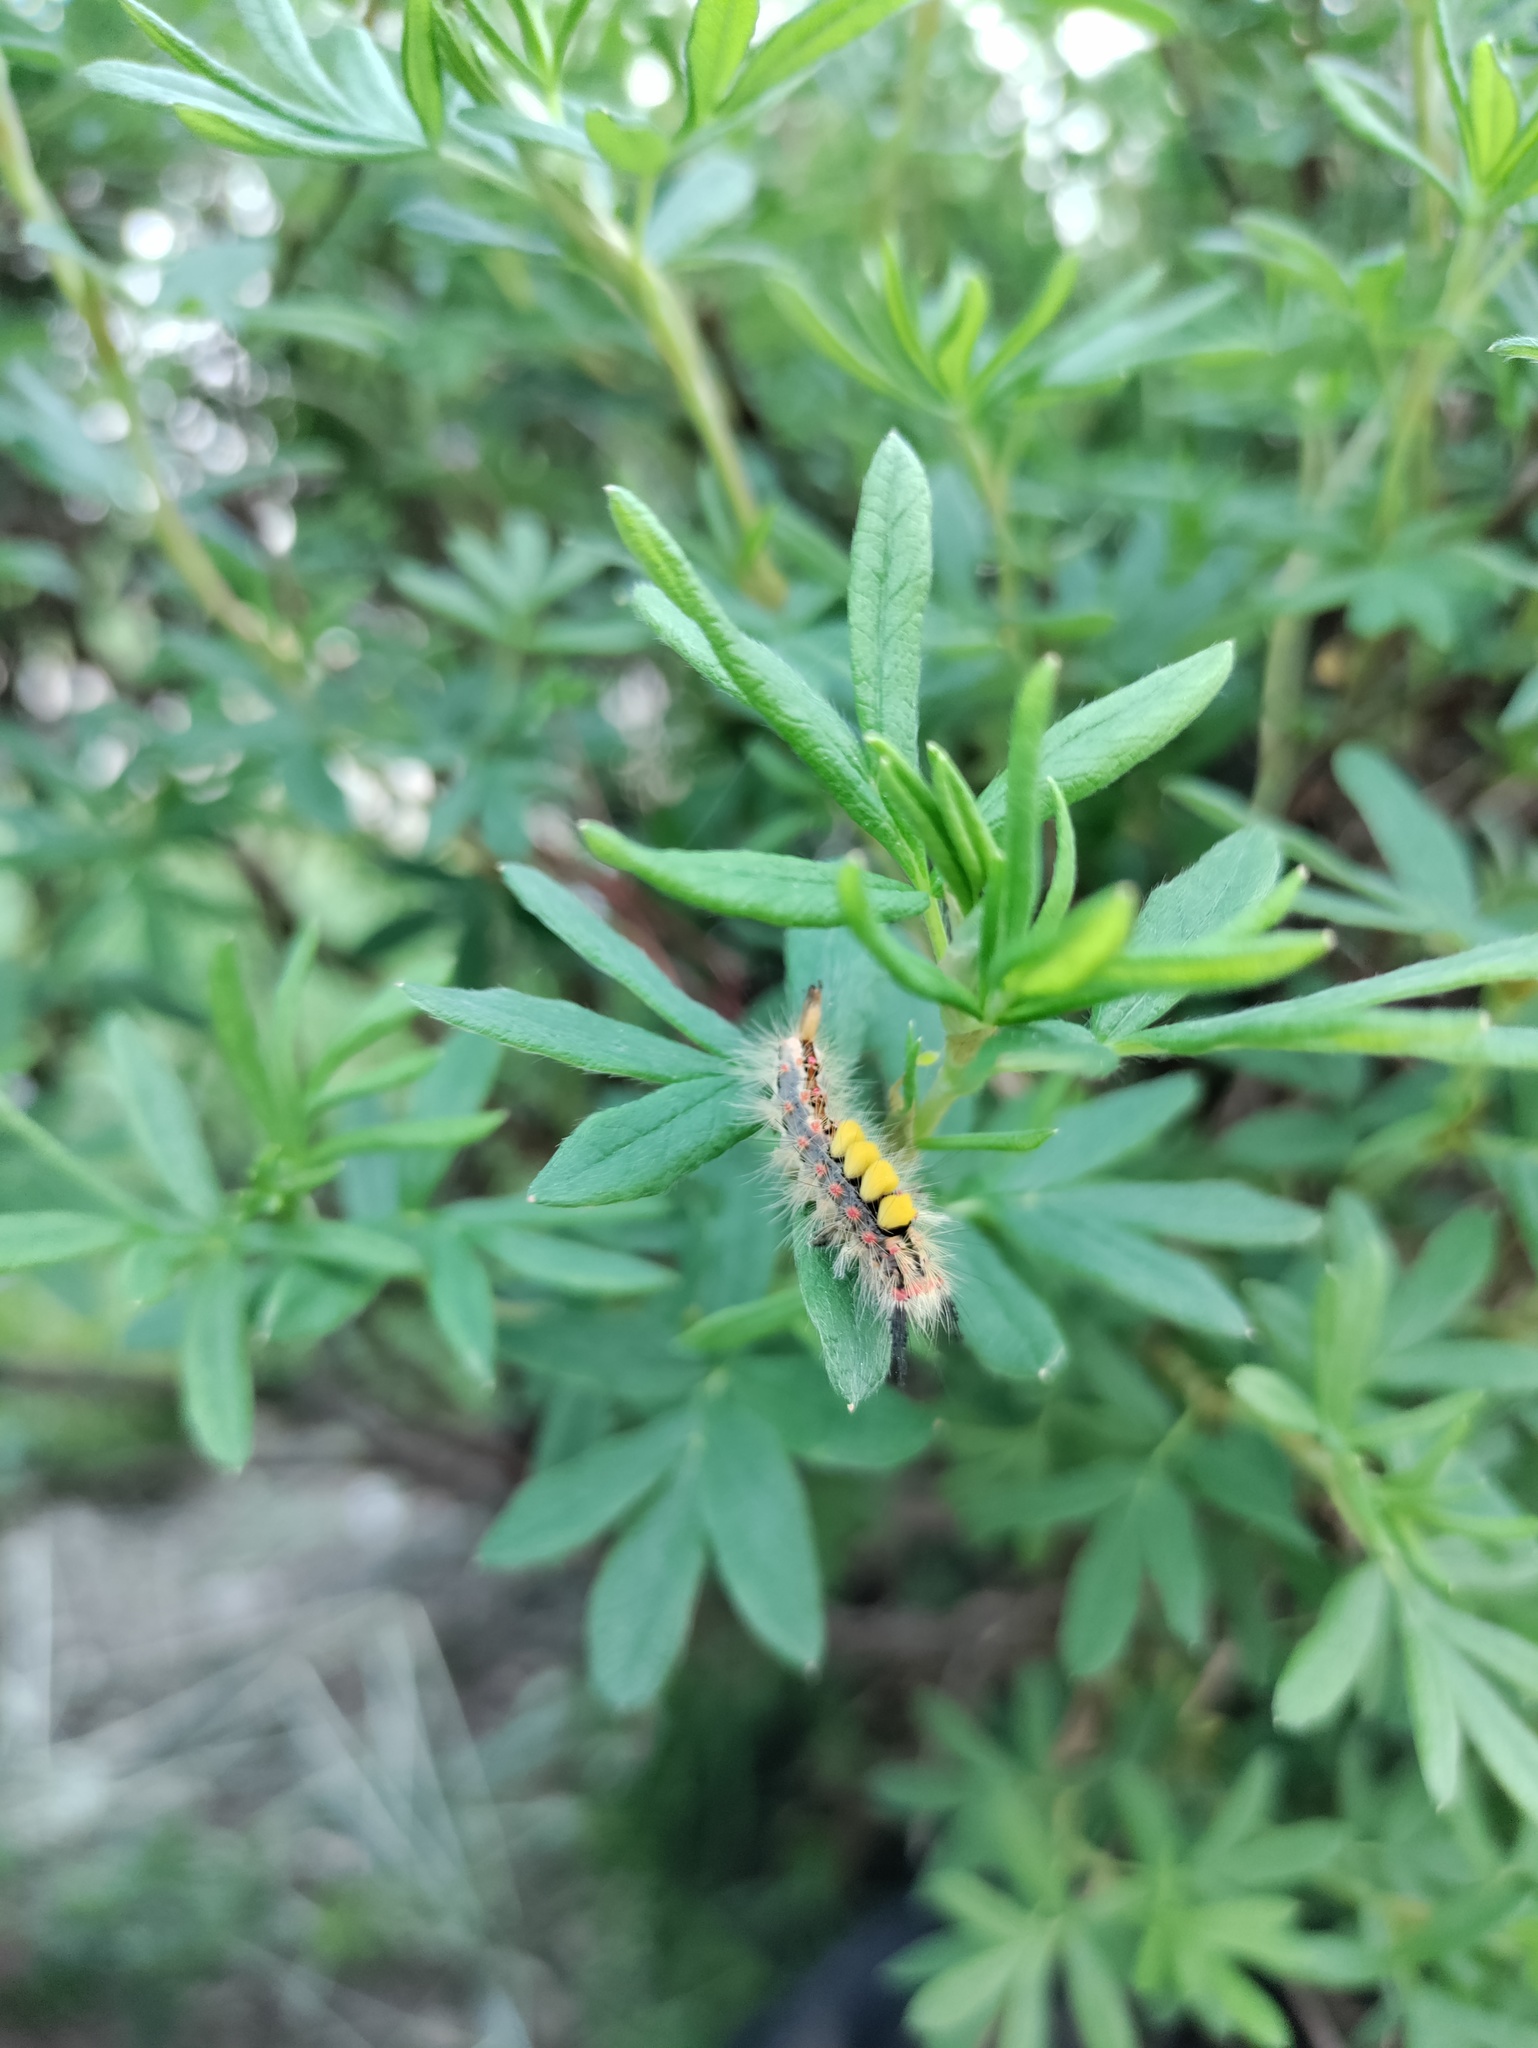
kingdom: Animalia
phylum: Arthropoda
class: Insecta
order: Lepidoptera
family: Erebidae
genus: Orgyia
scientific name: Orgyia antiqua
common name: Vapourer
